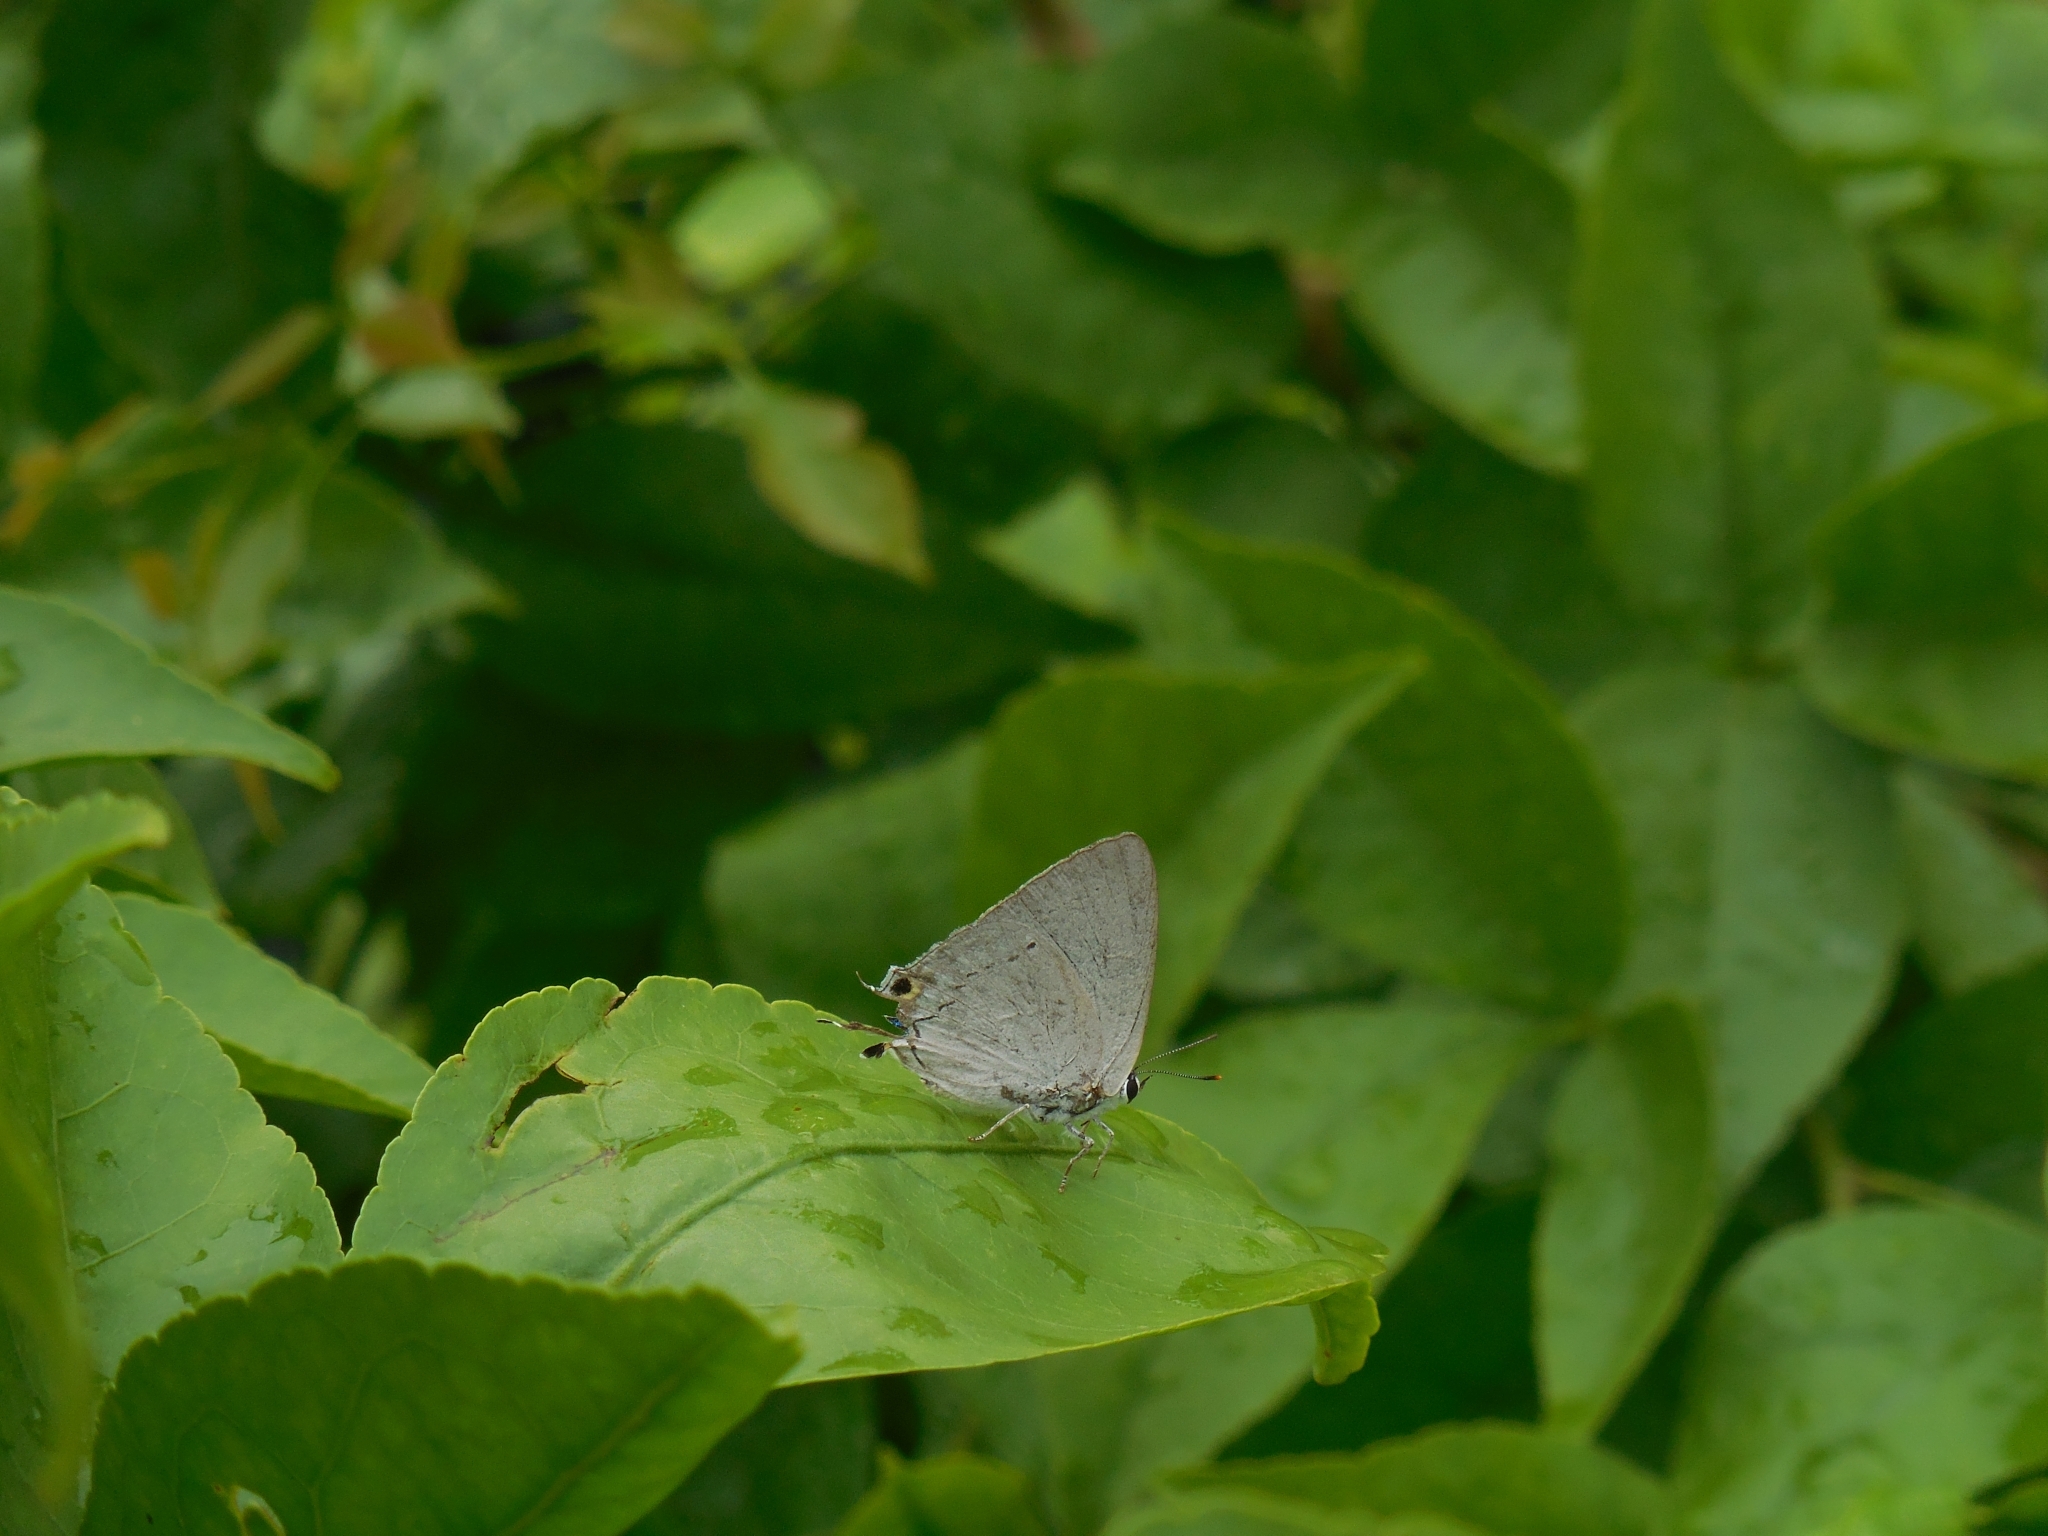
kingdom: Animalia
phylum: Arthropoda
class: Insecta
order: Lepidoptera
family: Lycaenidae
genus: Tajuria
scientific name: Tajuria cippus
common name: Peacock royal
